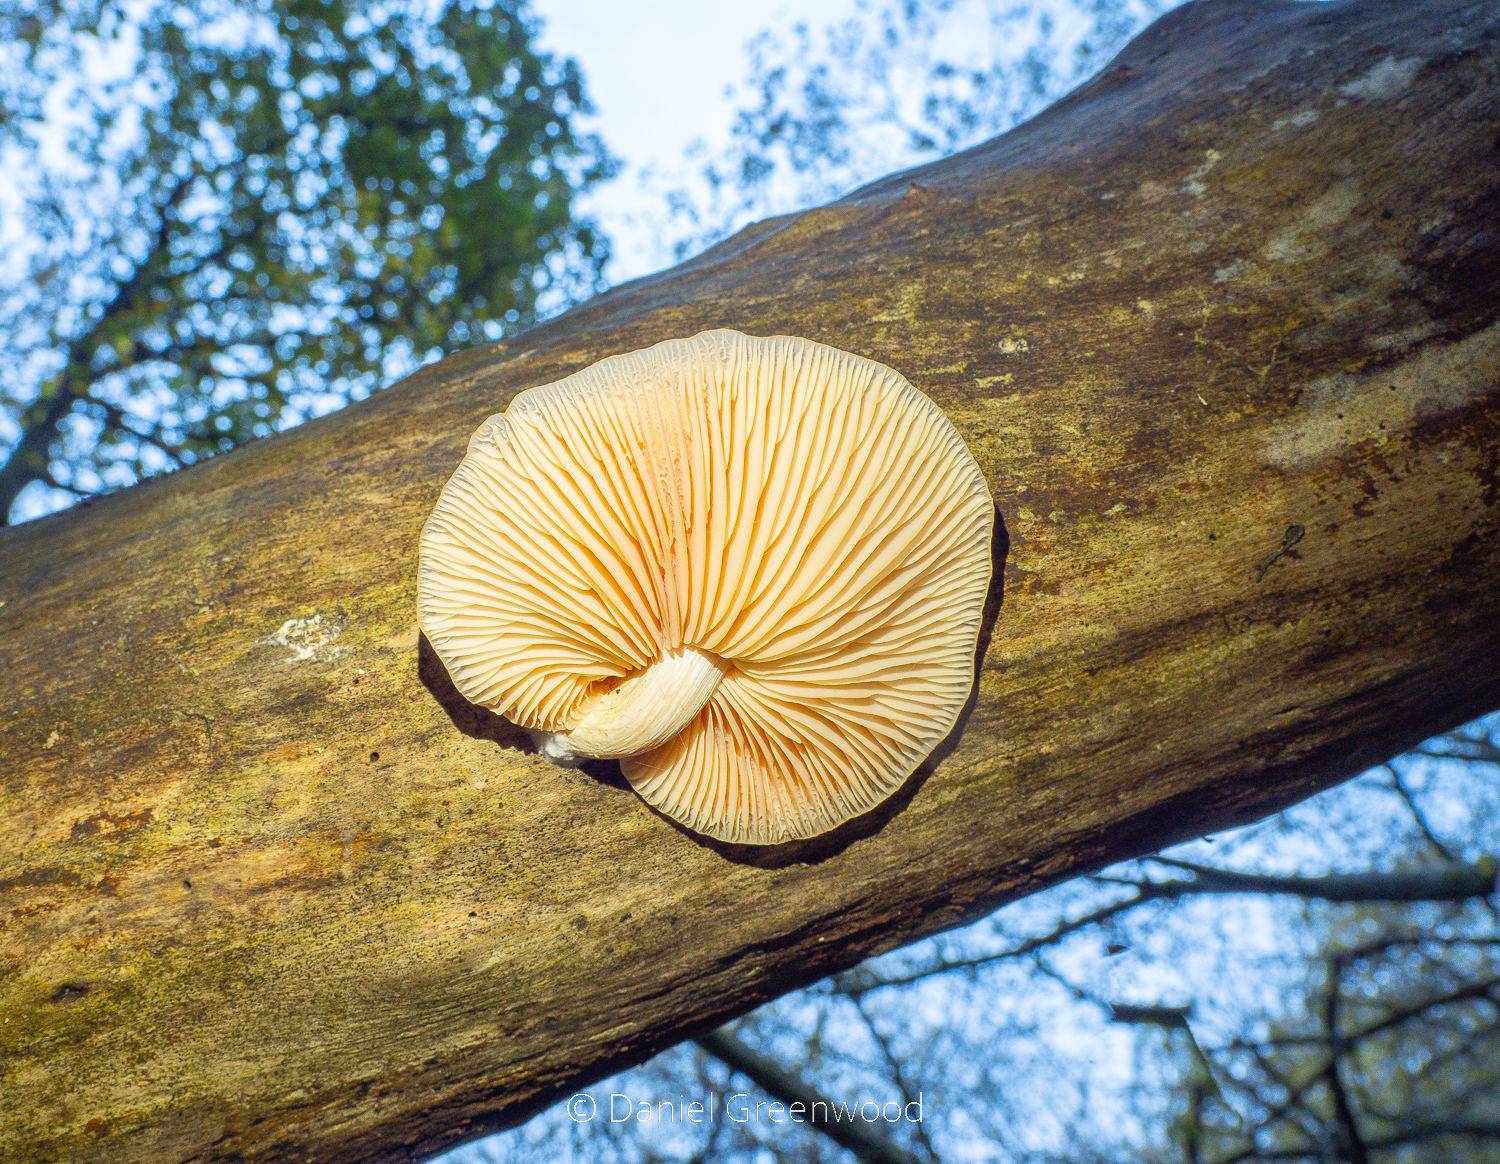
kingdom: Fungi
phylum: Basidiomycota
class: Agaricomycetes
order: Agaricales
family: Physalacriaceae
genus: Rhodotus
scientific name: Rhodotus palmatus
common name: Wrinkled peach
